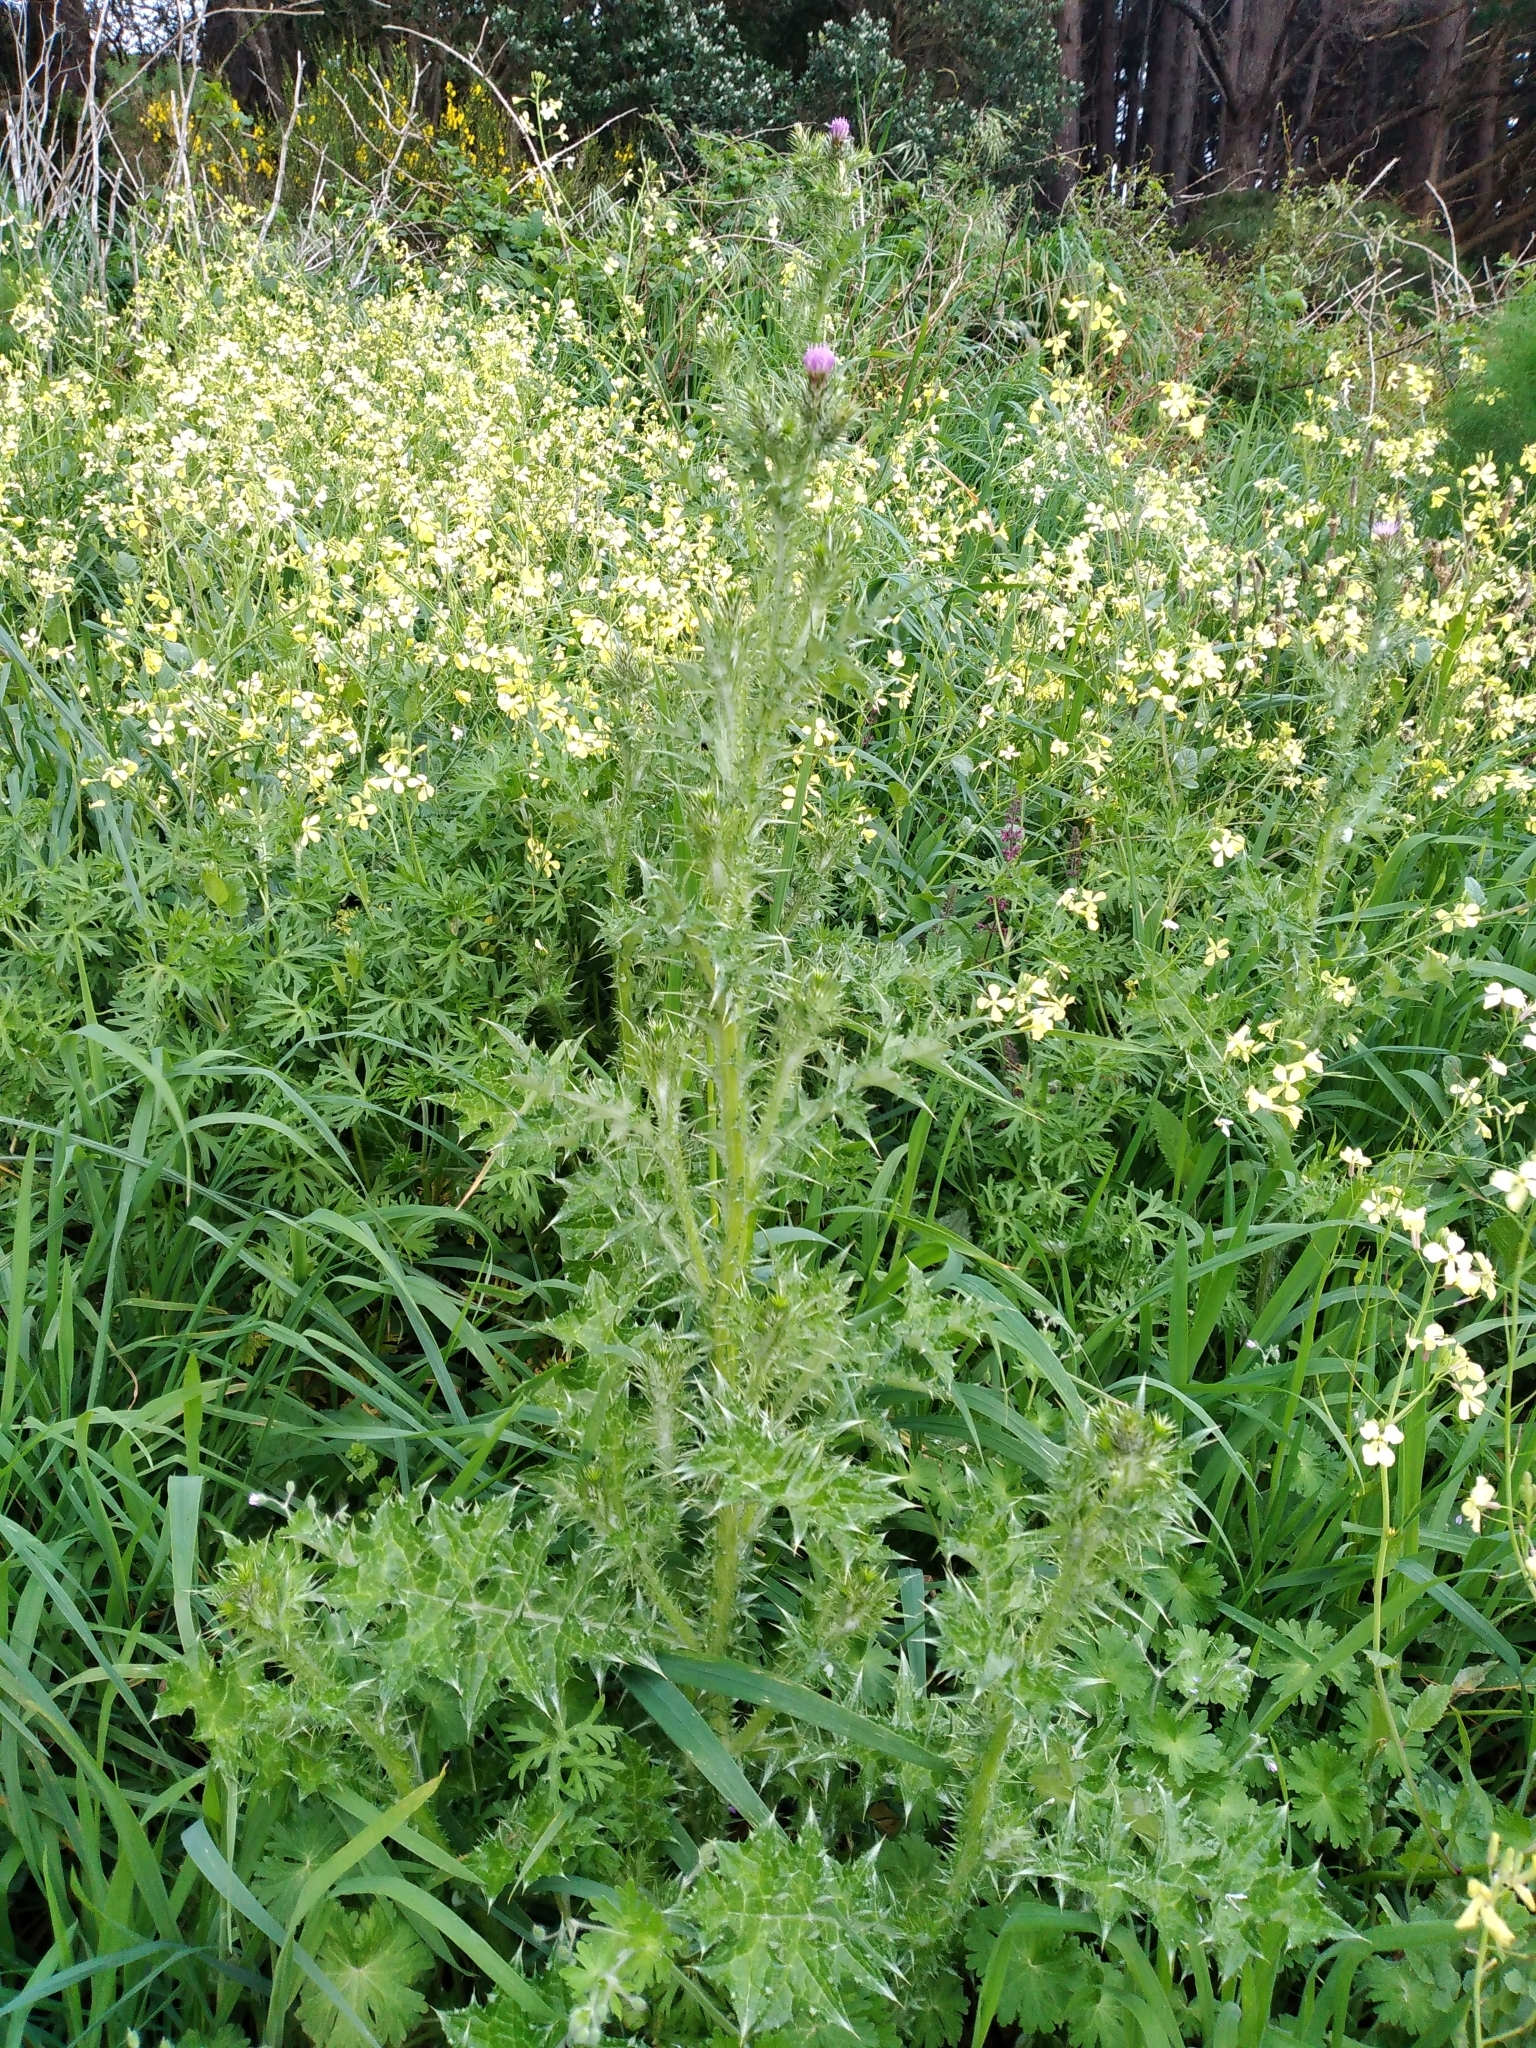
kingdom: Plantae
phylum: Tracheophyta
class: Magnoliopsida
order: Asterales
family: Asteraceae
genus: Carduus
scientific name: Carduus tenuiflorus
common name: Slender thistle
